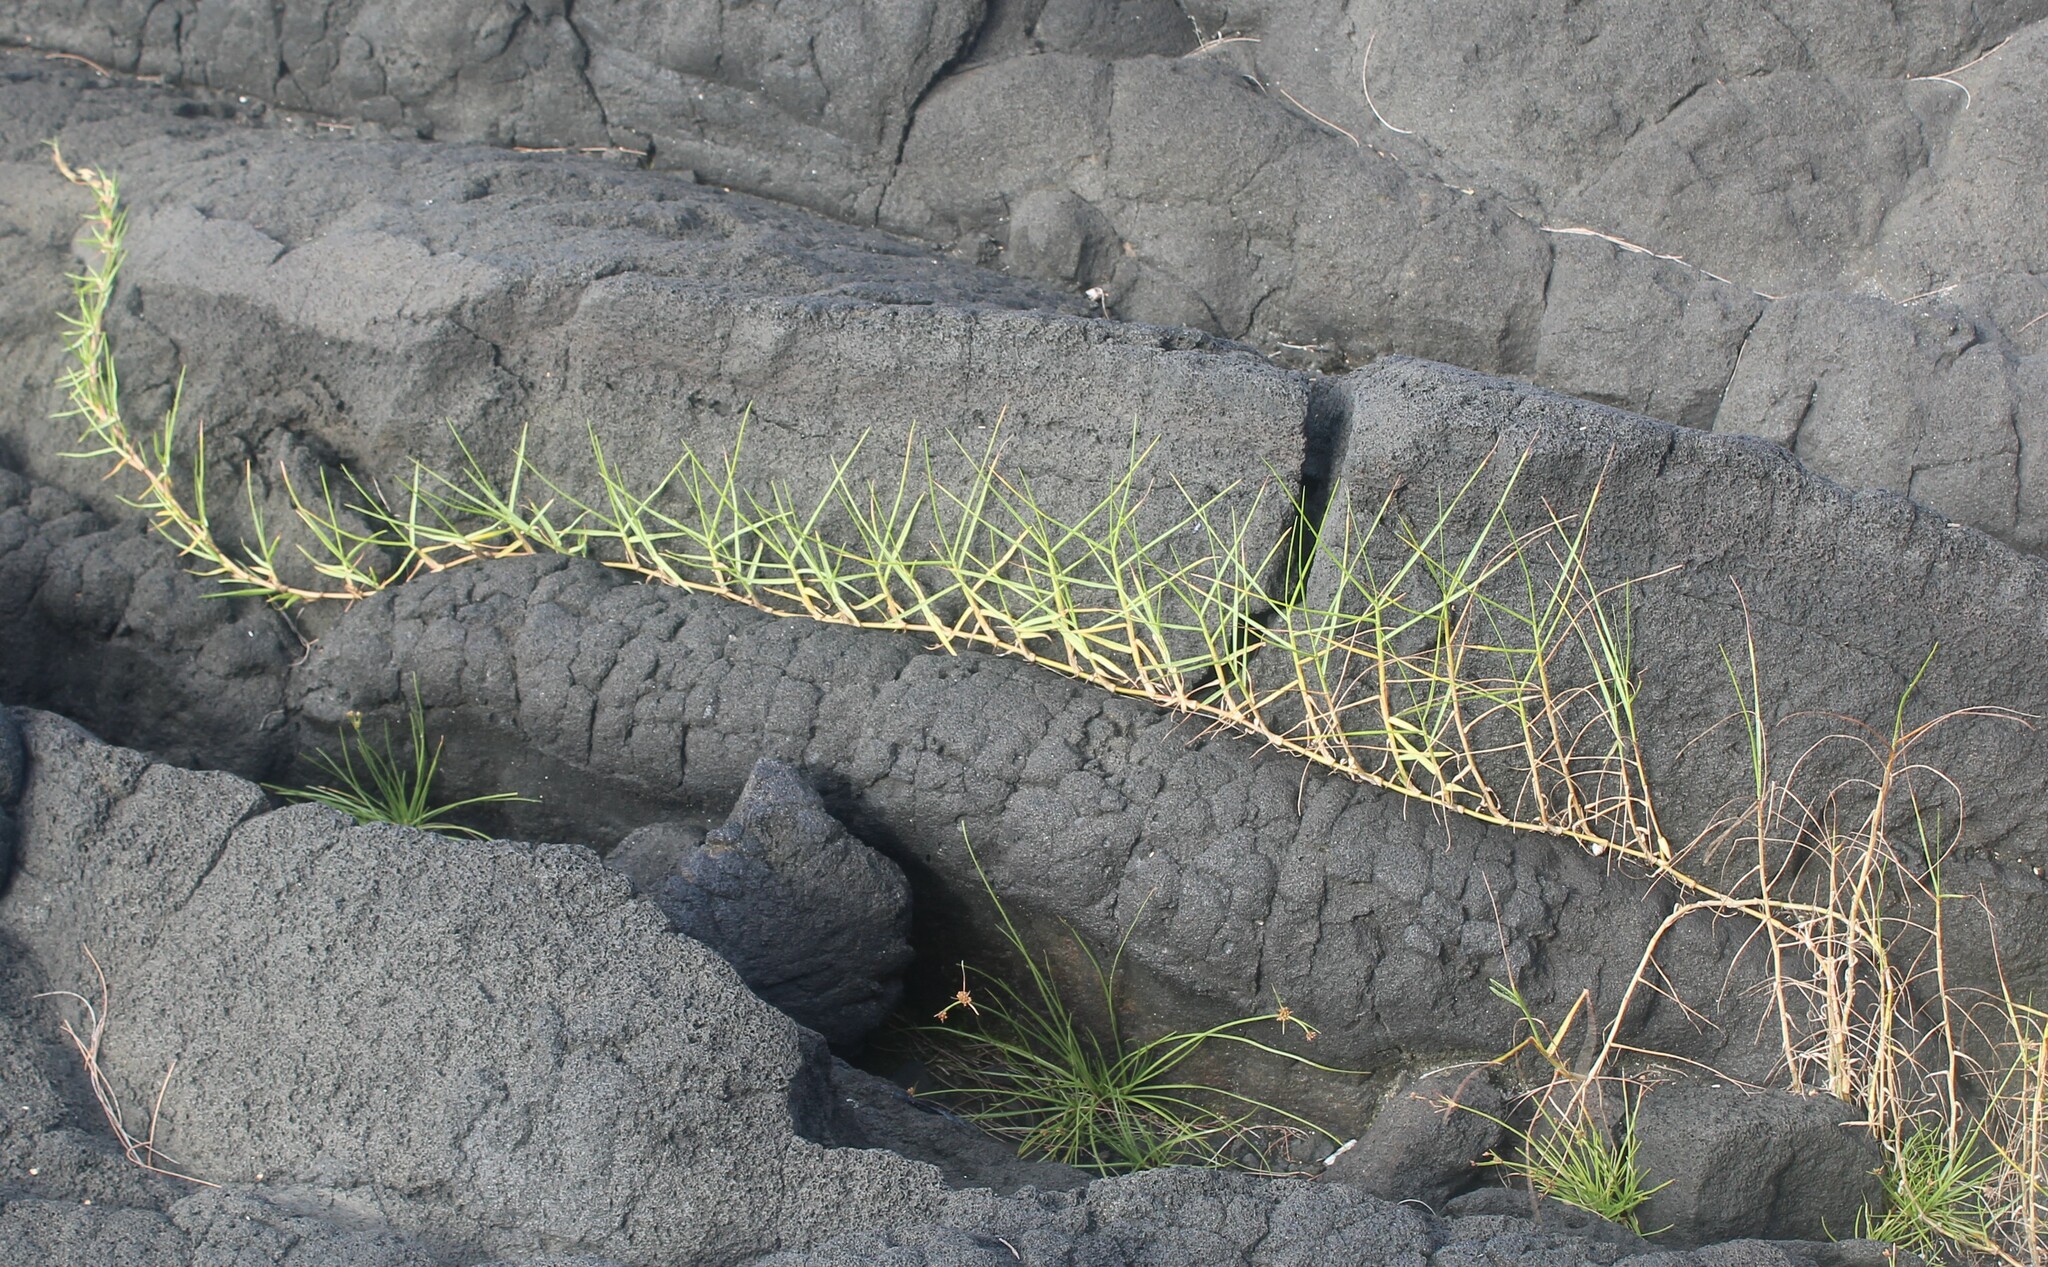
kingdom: Plantae
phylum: Tracheophyta
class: Liliopsida
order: Poales
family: Poaceae
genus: Paspalum
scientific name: Paspalum vaginatum
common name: Seashore paspalum
